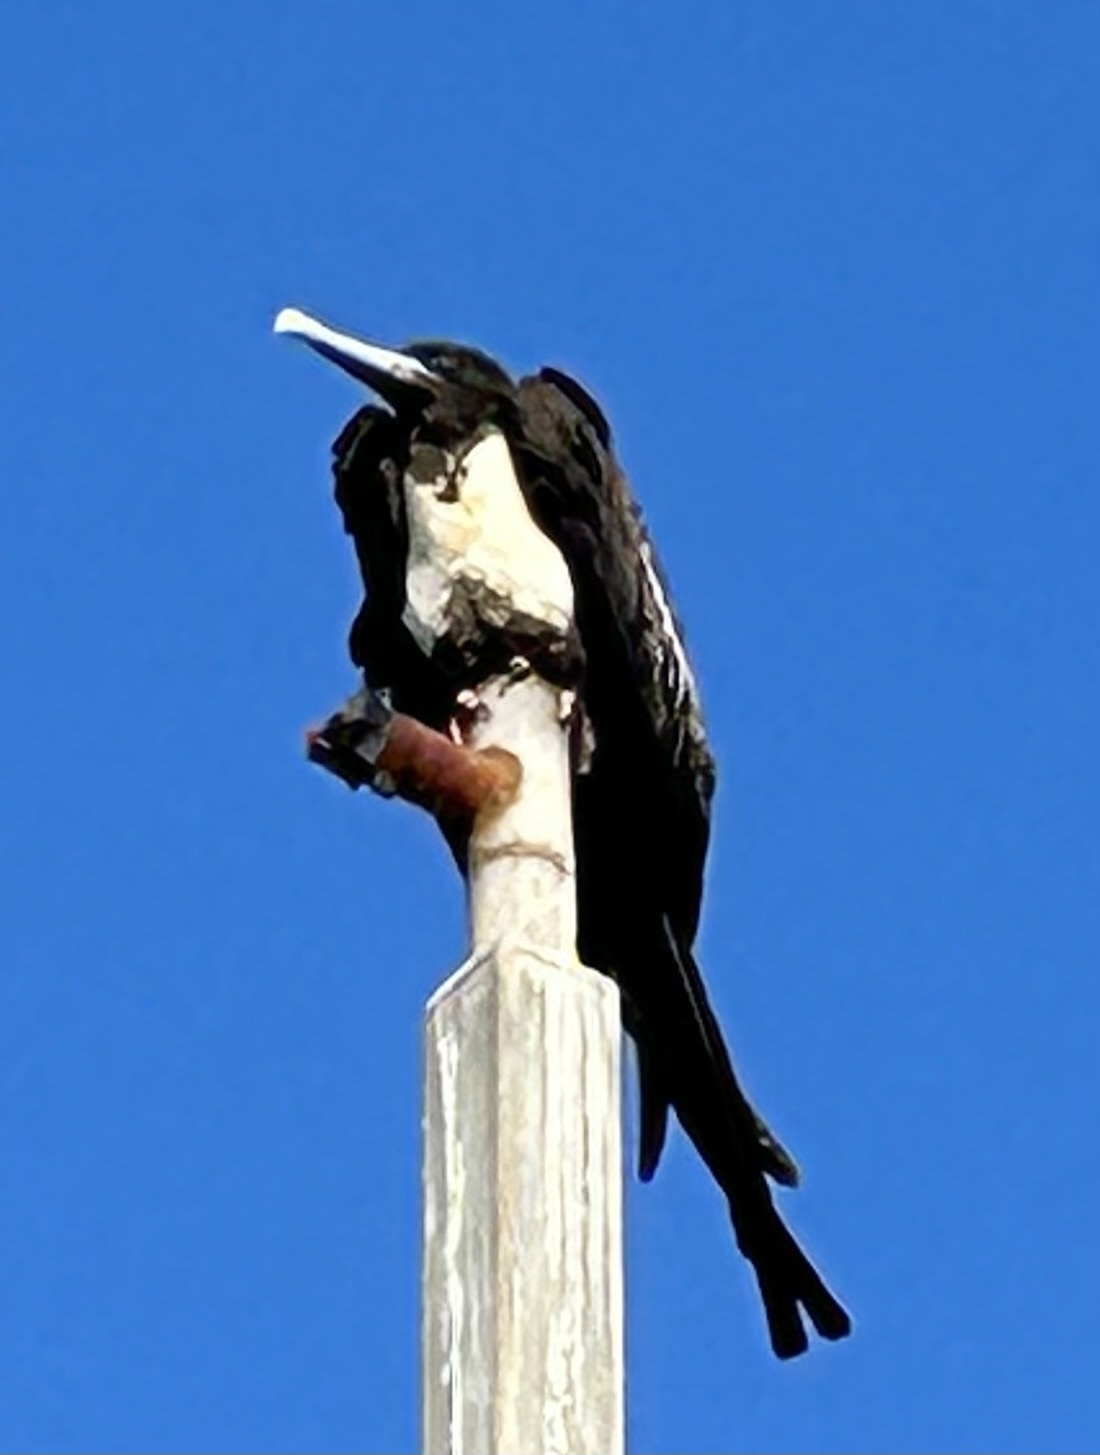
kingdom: Animalia
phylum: Chordata
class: Aves
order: Suliformes
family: Fregatidae
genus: Fregata
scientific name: Fregata magnificens
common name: Magnificent frigatebird
